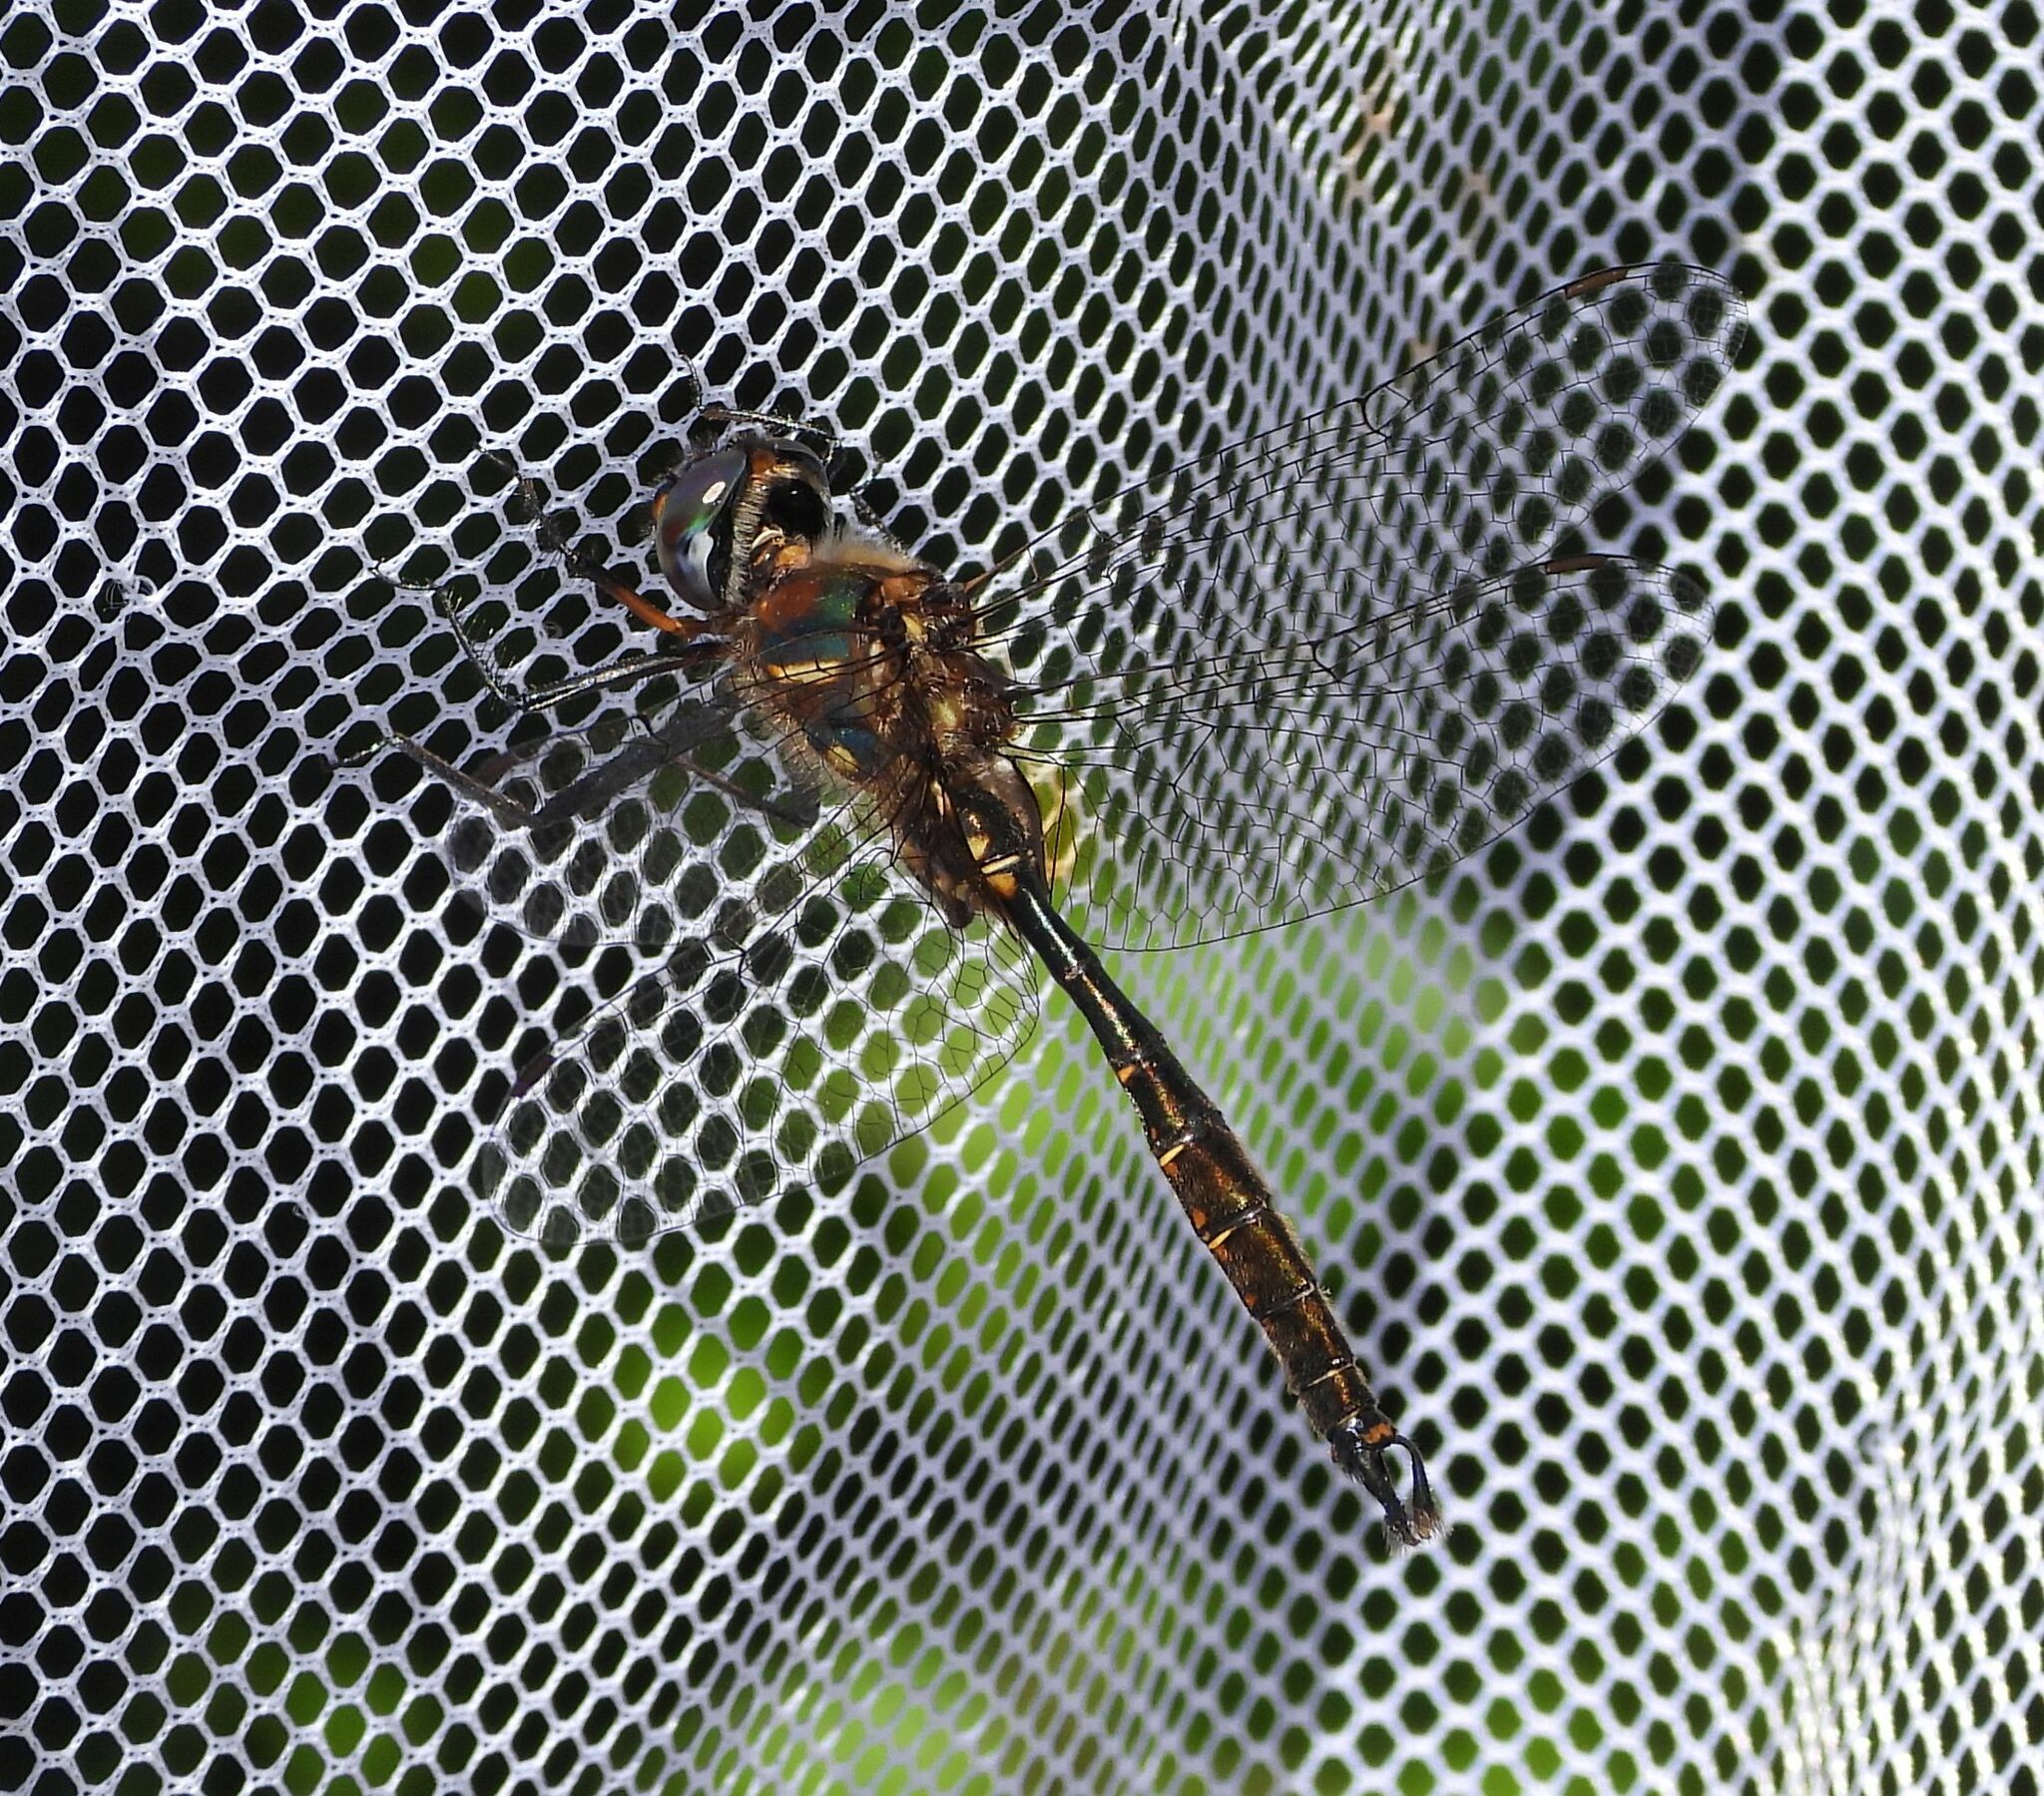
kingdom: Animalia
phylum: Arthropoda
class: Insecta
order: Odonata
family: Corduliidae
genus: Somatochlora
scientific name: Somatochlora walshii
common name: Brush-tipped emerald
